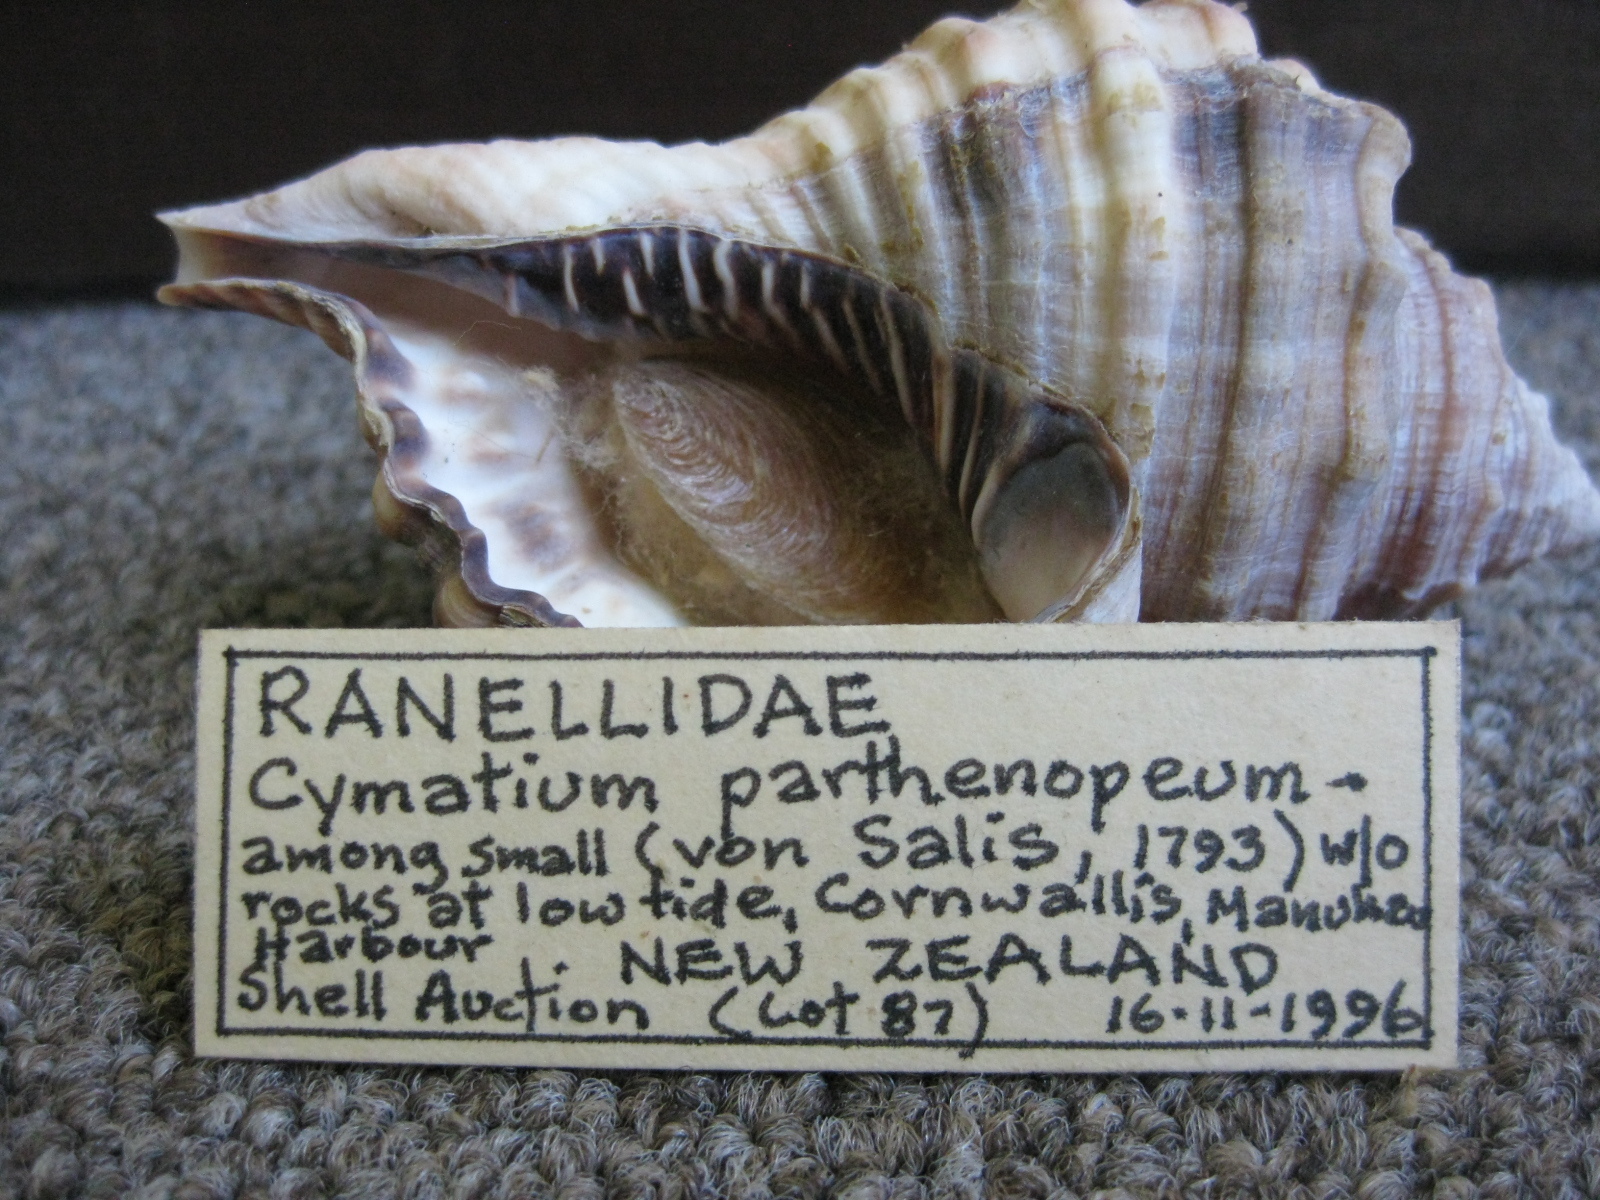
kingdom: Animalia
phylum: Mollusca
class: Gastropoda
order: Littorinimorpha
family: Cymatiidae
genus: Monoplex
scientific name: Monoplex parthenopeus
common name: Giant triton
